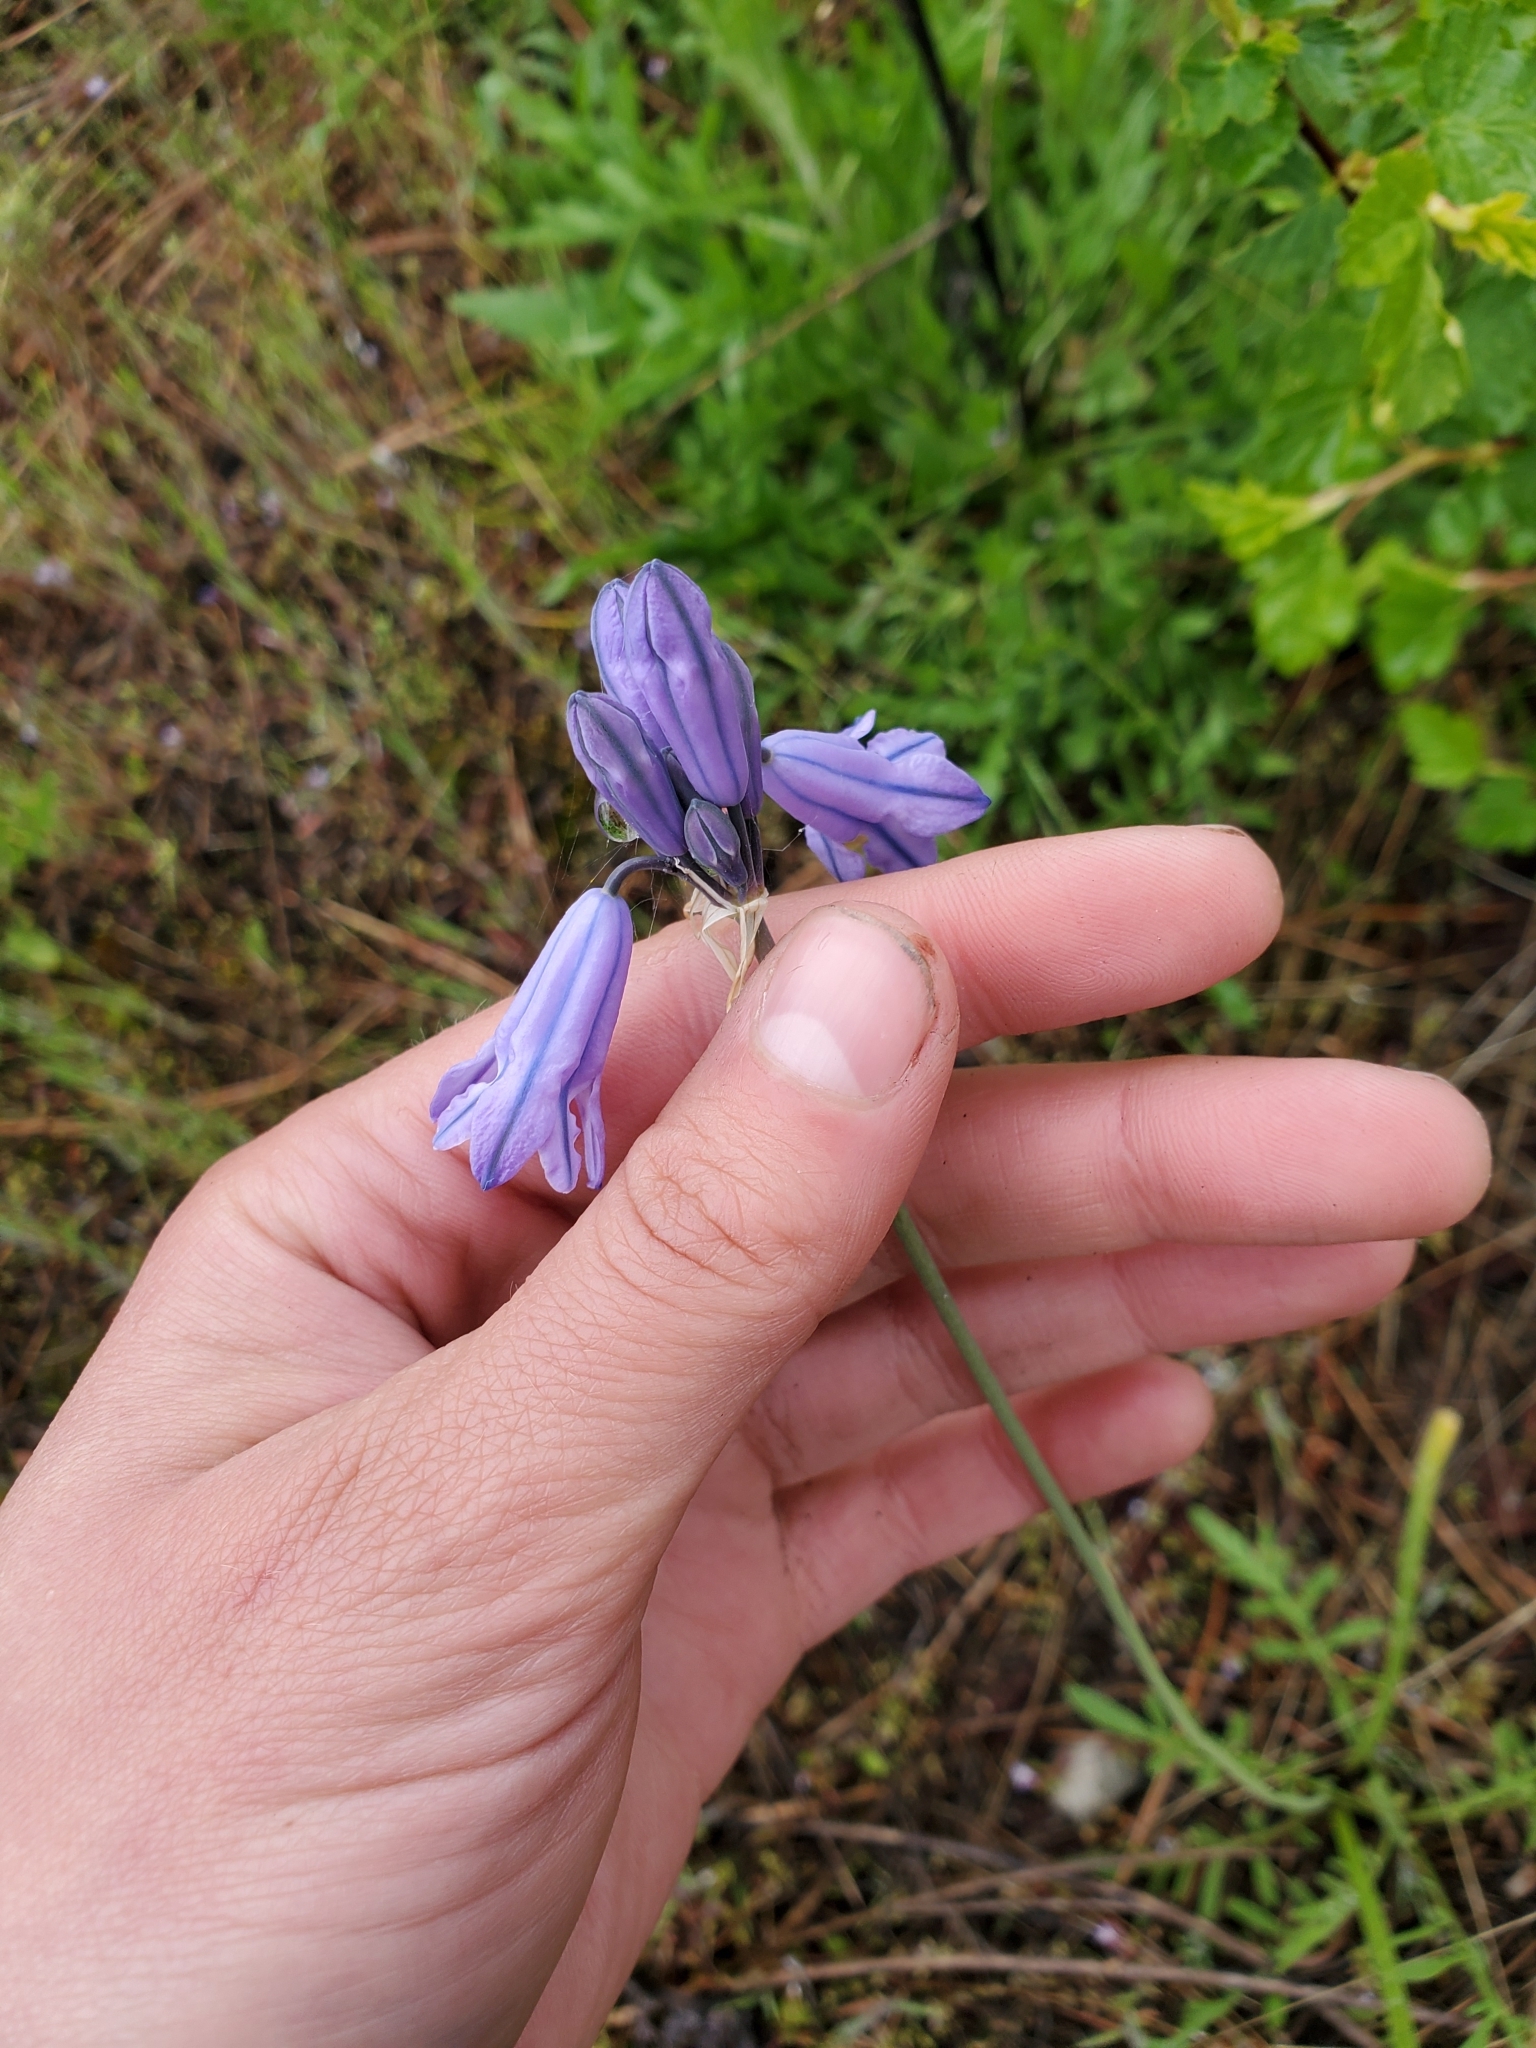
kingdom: Plantae
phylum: Tracheophyta
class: Liliopsida
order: Asparagales
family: Asparagaceae
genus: Triteleia
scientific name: Triteleia grandiflora
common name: Wild hyacinth
